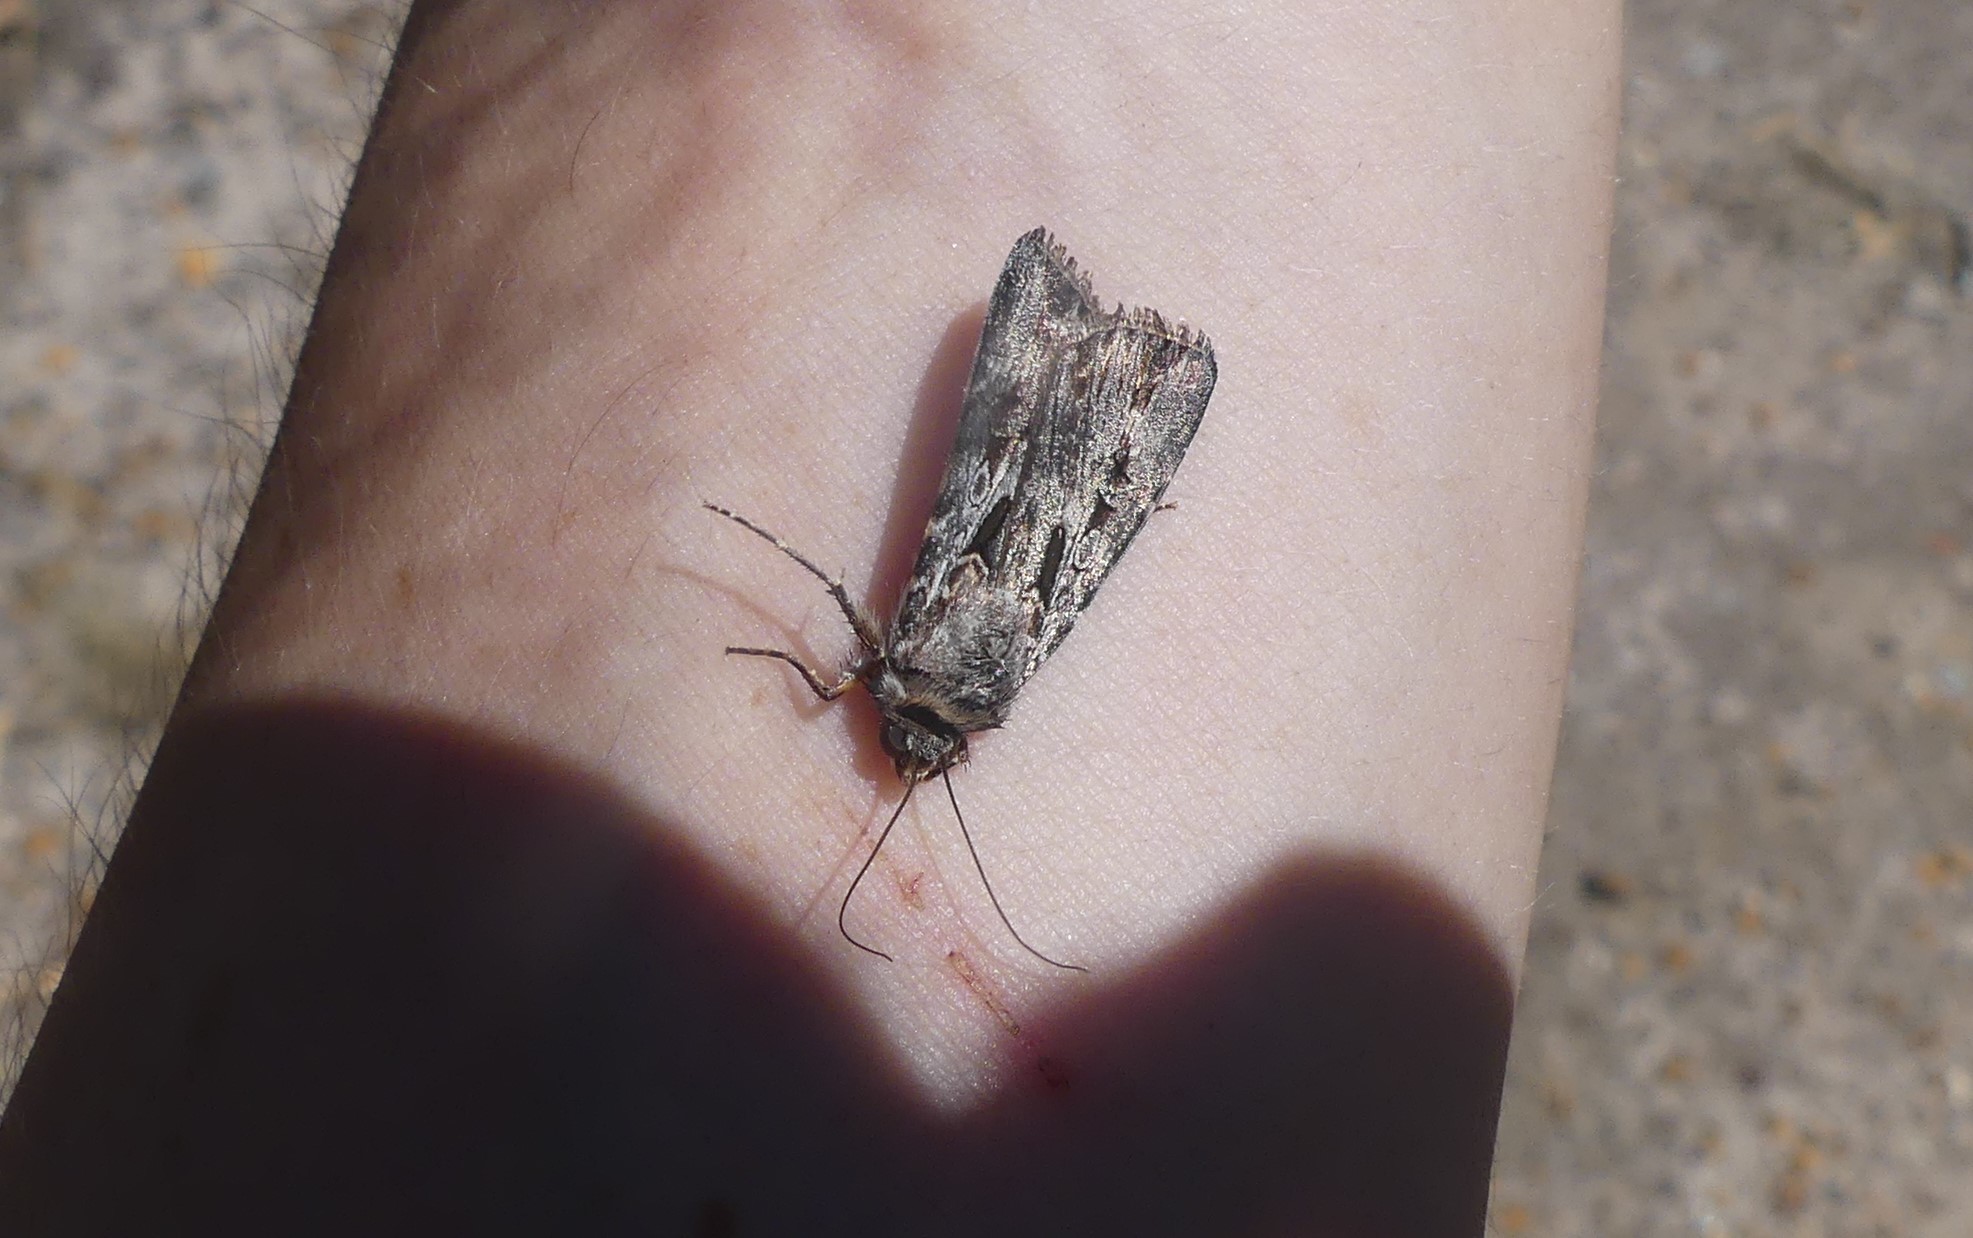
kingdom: Animalia
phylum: Arthropoda
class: Insecta
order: Lepidoptera
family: Noctuidae
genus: Agrotis
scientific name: Agrotis munda
